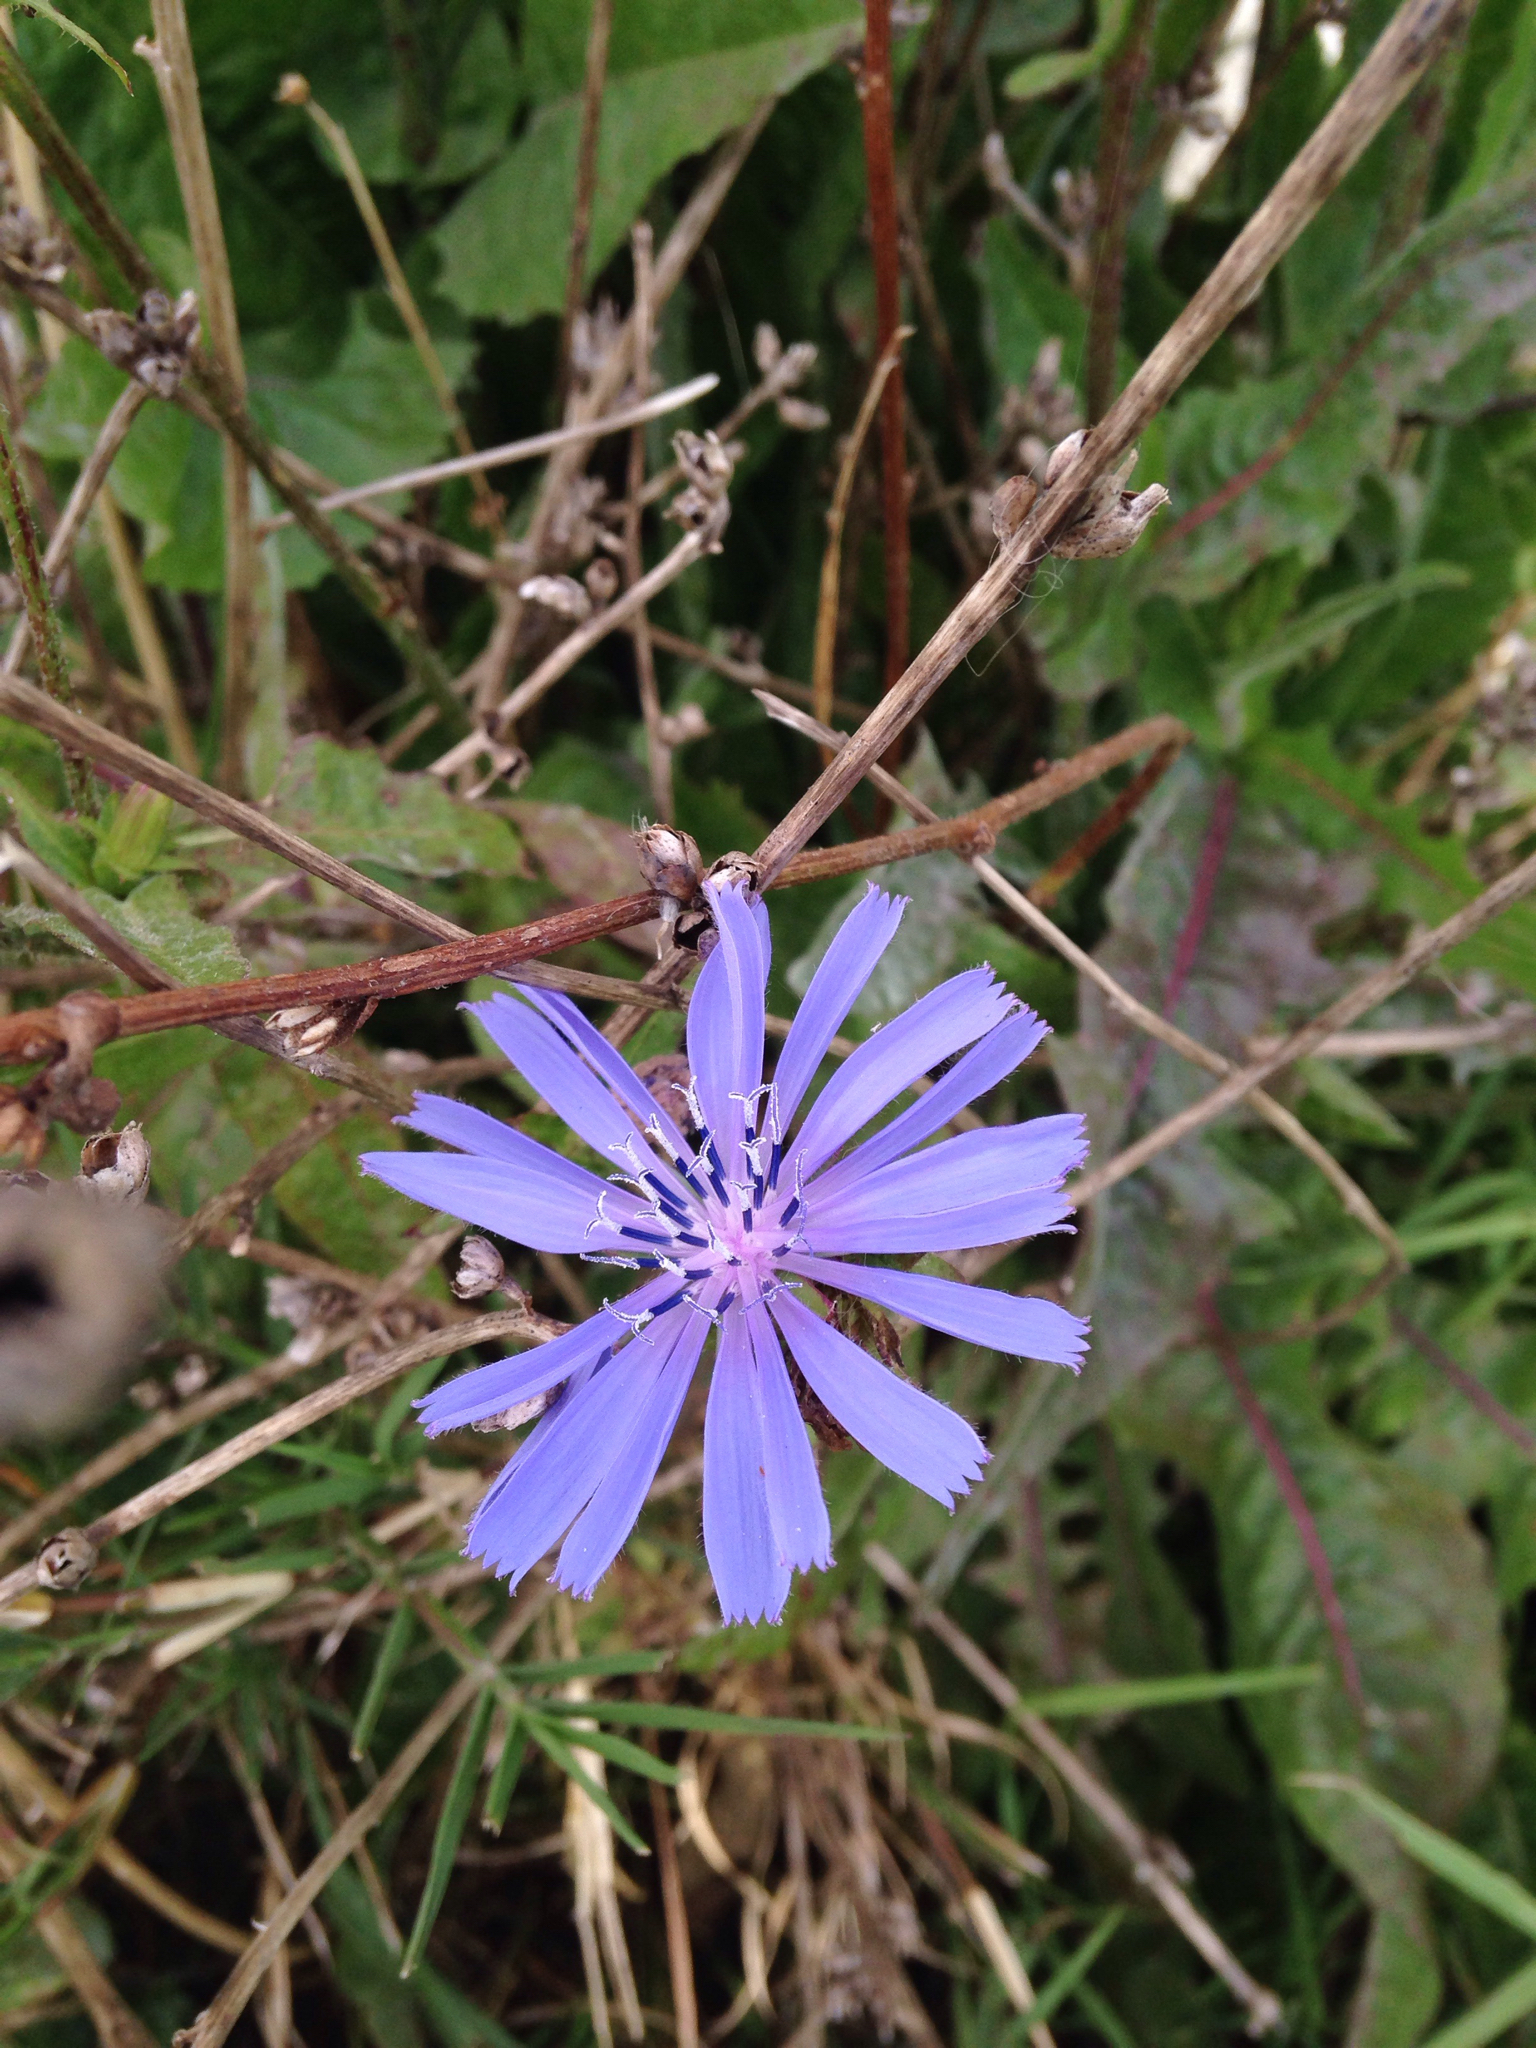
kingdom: Plantae
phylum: Tracheophyta
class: Magnoliopsida
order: Asterales
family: Asteraceae
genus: Cichorium
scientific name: Cichorium intybus
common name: Chicory
